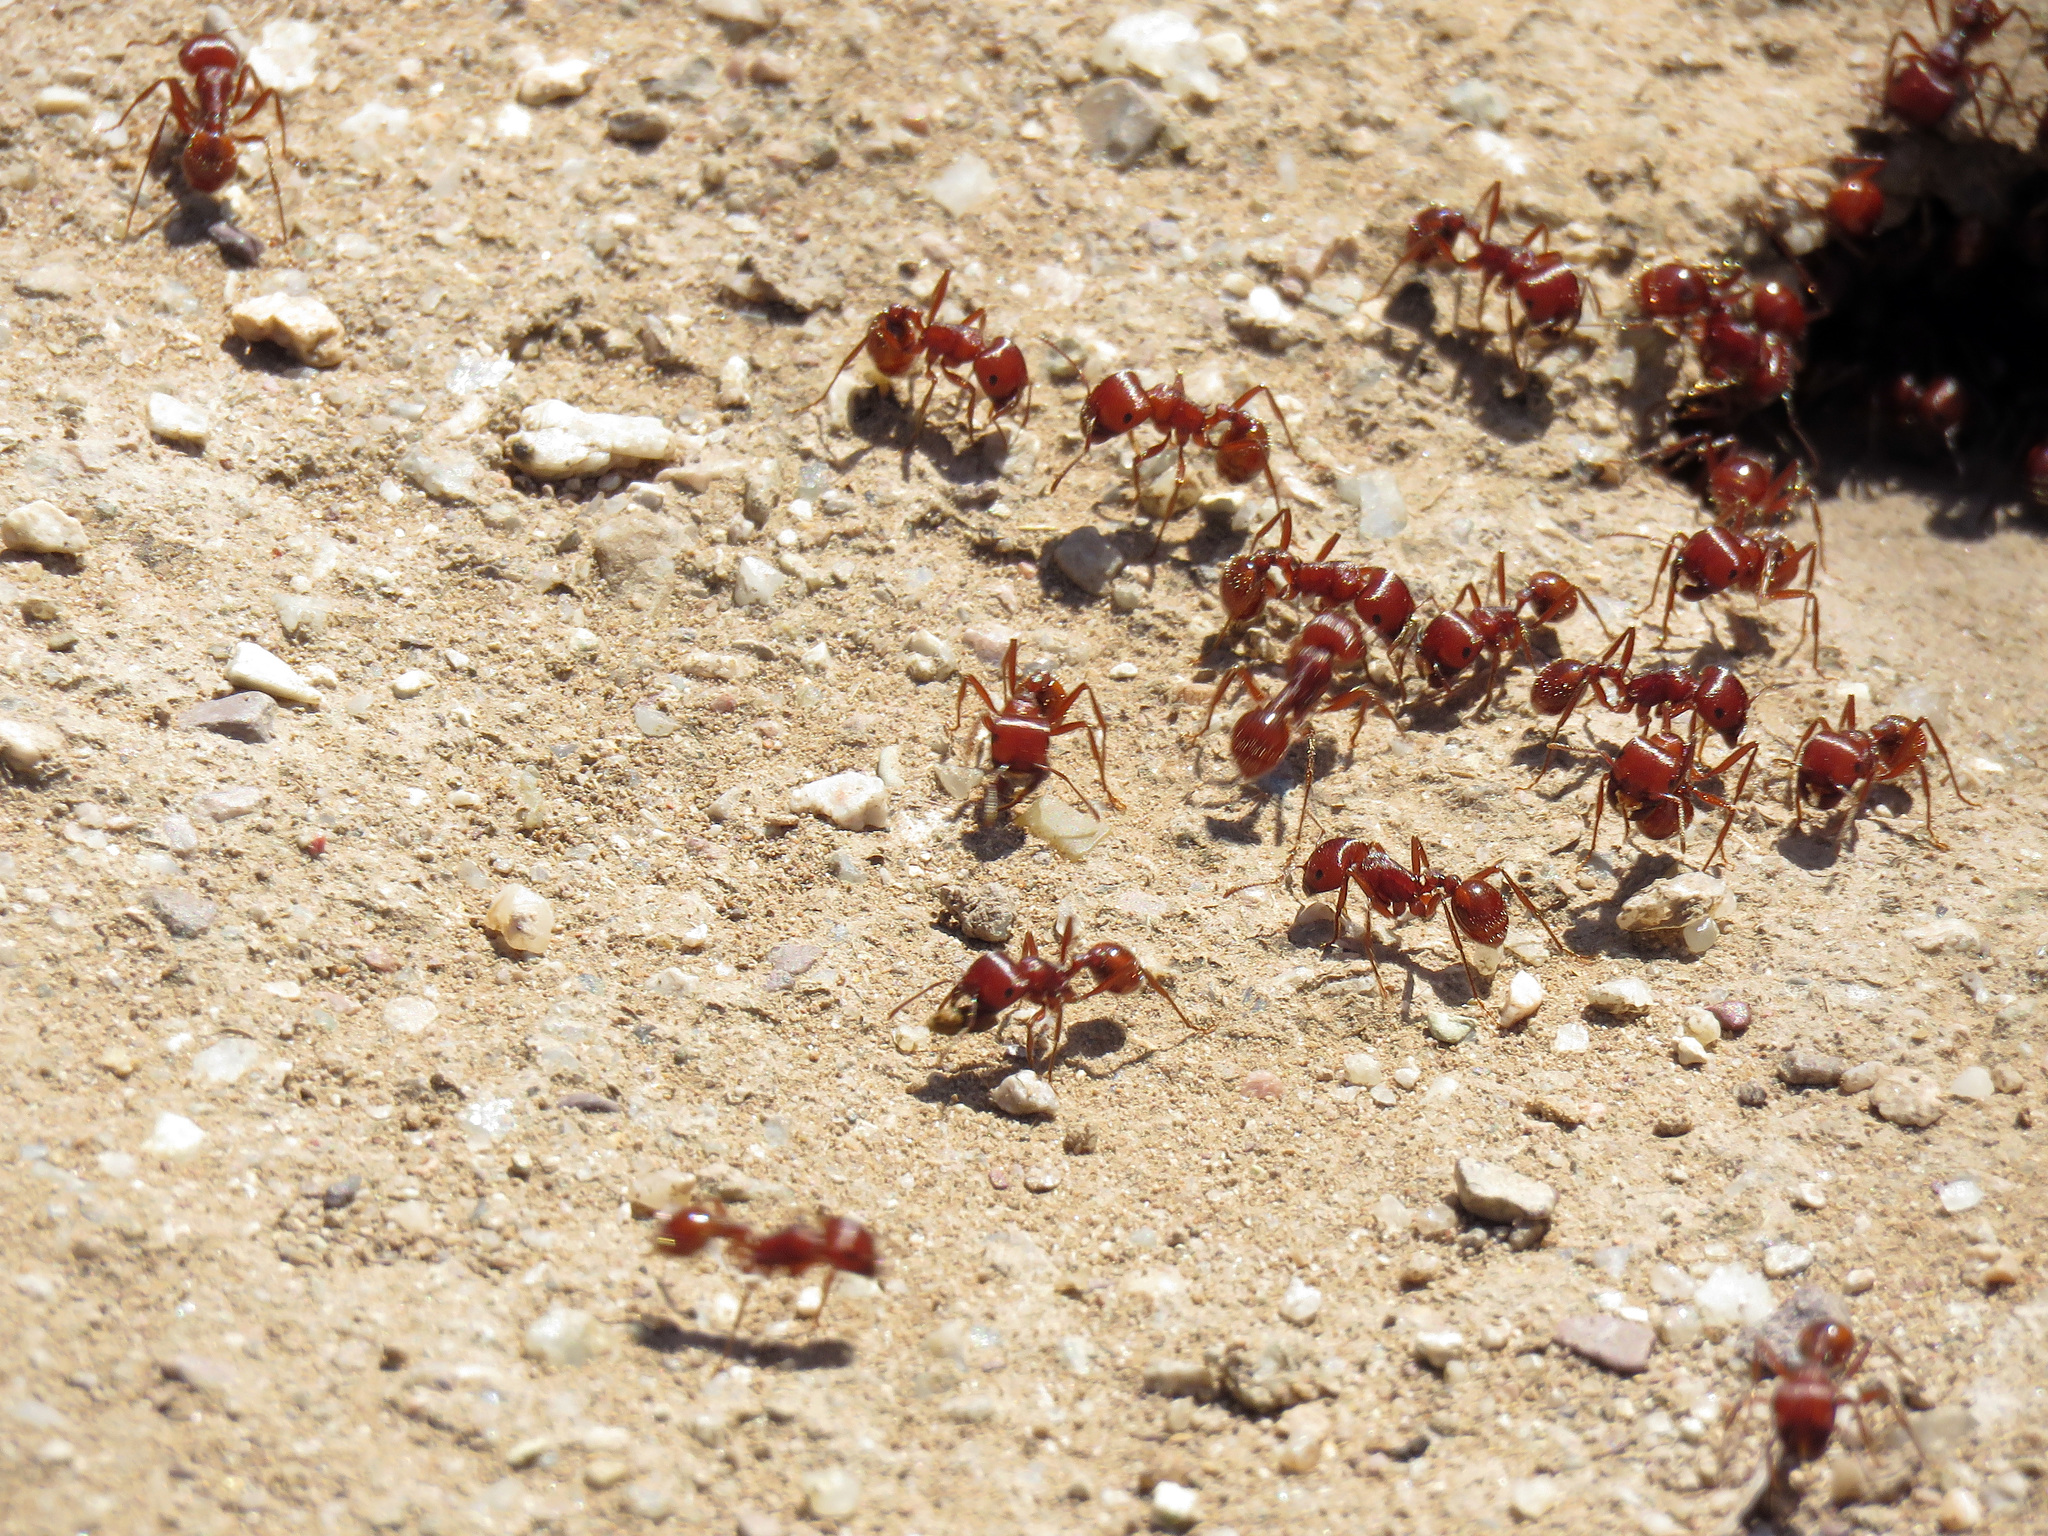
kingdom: Animalia
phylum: Arthropoda
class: Insecta
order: Hymenoptera
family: Formicidae
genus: Pogonomyrmex
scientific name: Pogonomyrmex barbatus
